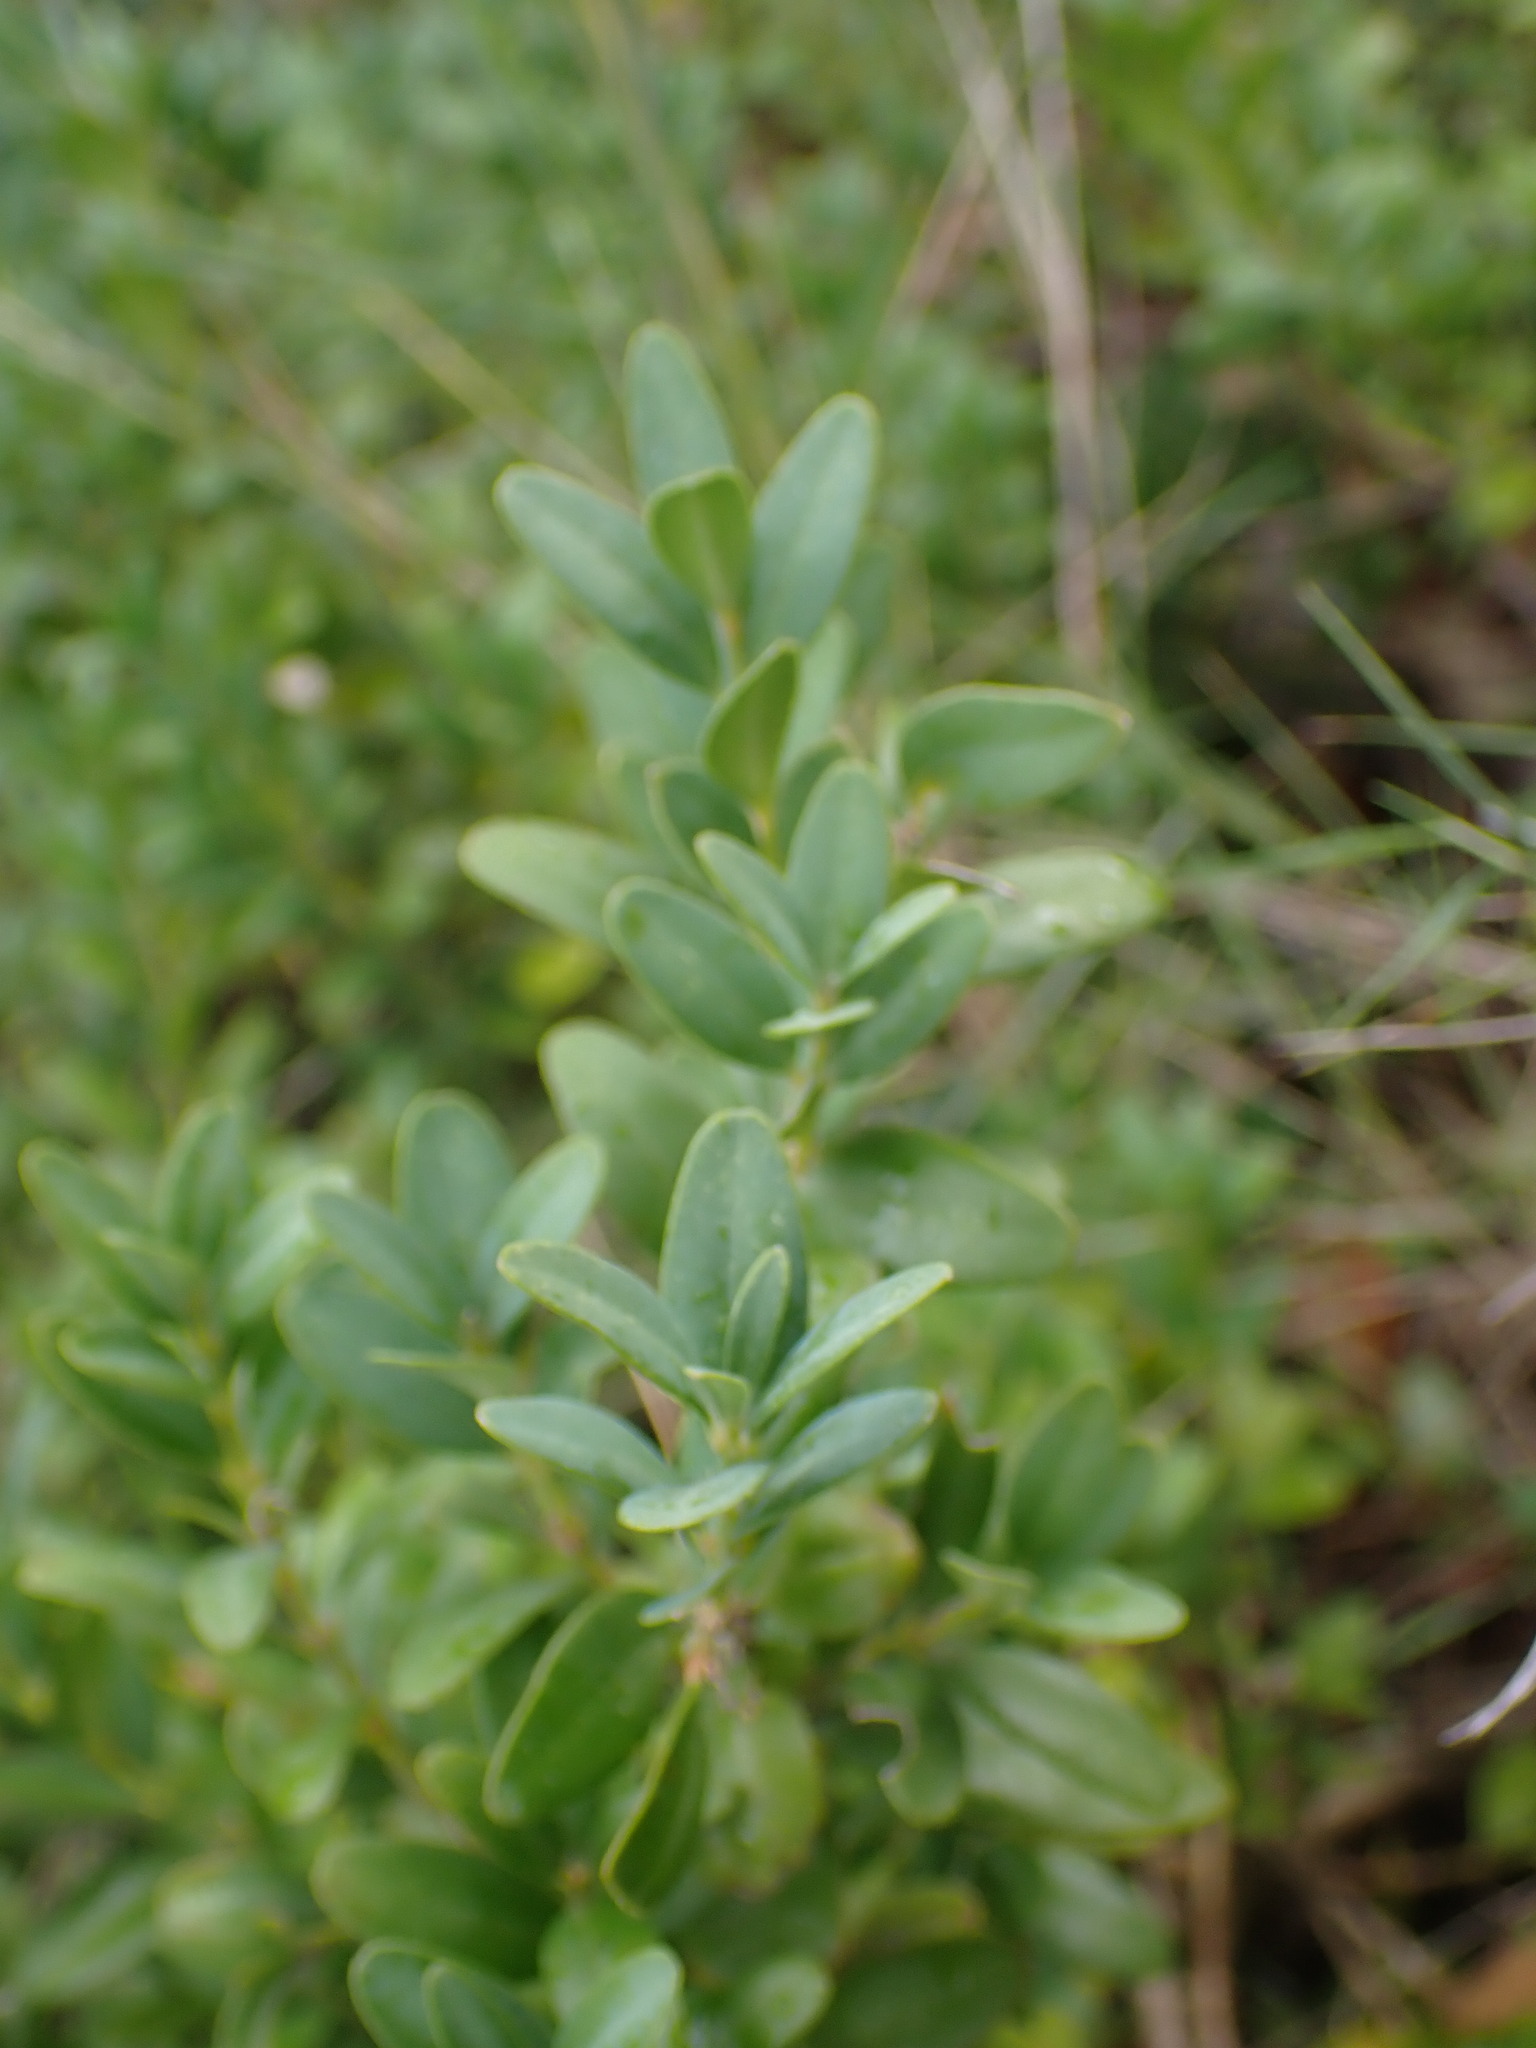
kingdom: Plantae
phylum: Tracheophyta
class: Magnoliopsida
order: Buxales
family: Buxaceae
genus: Buxus
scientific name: Buxus sempervirens
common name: Box
